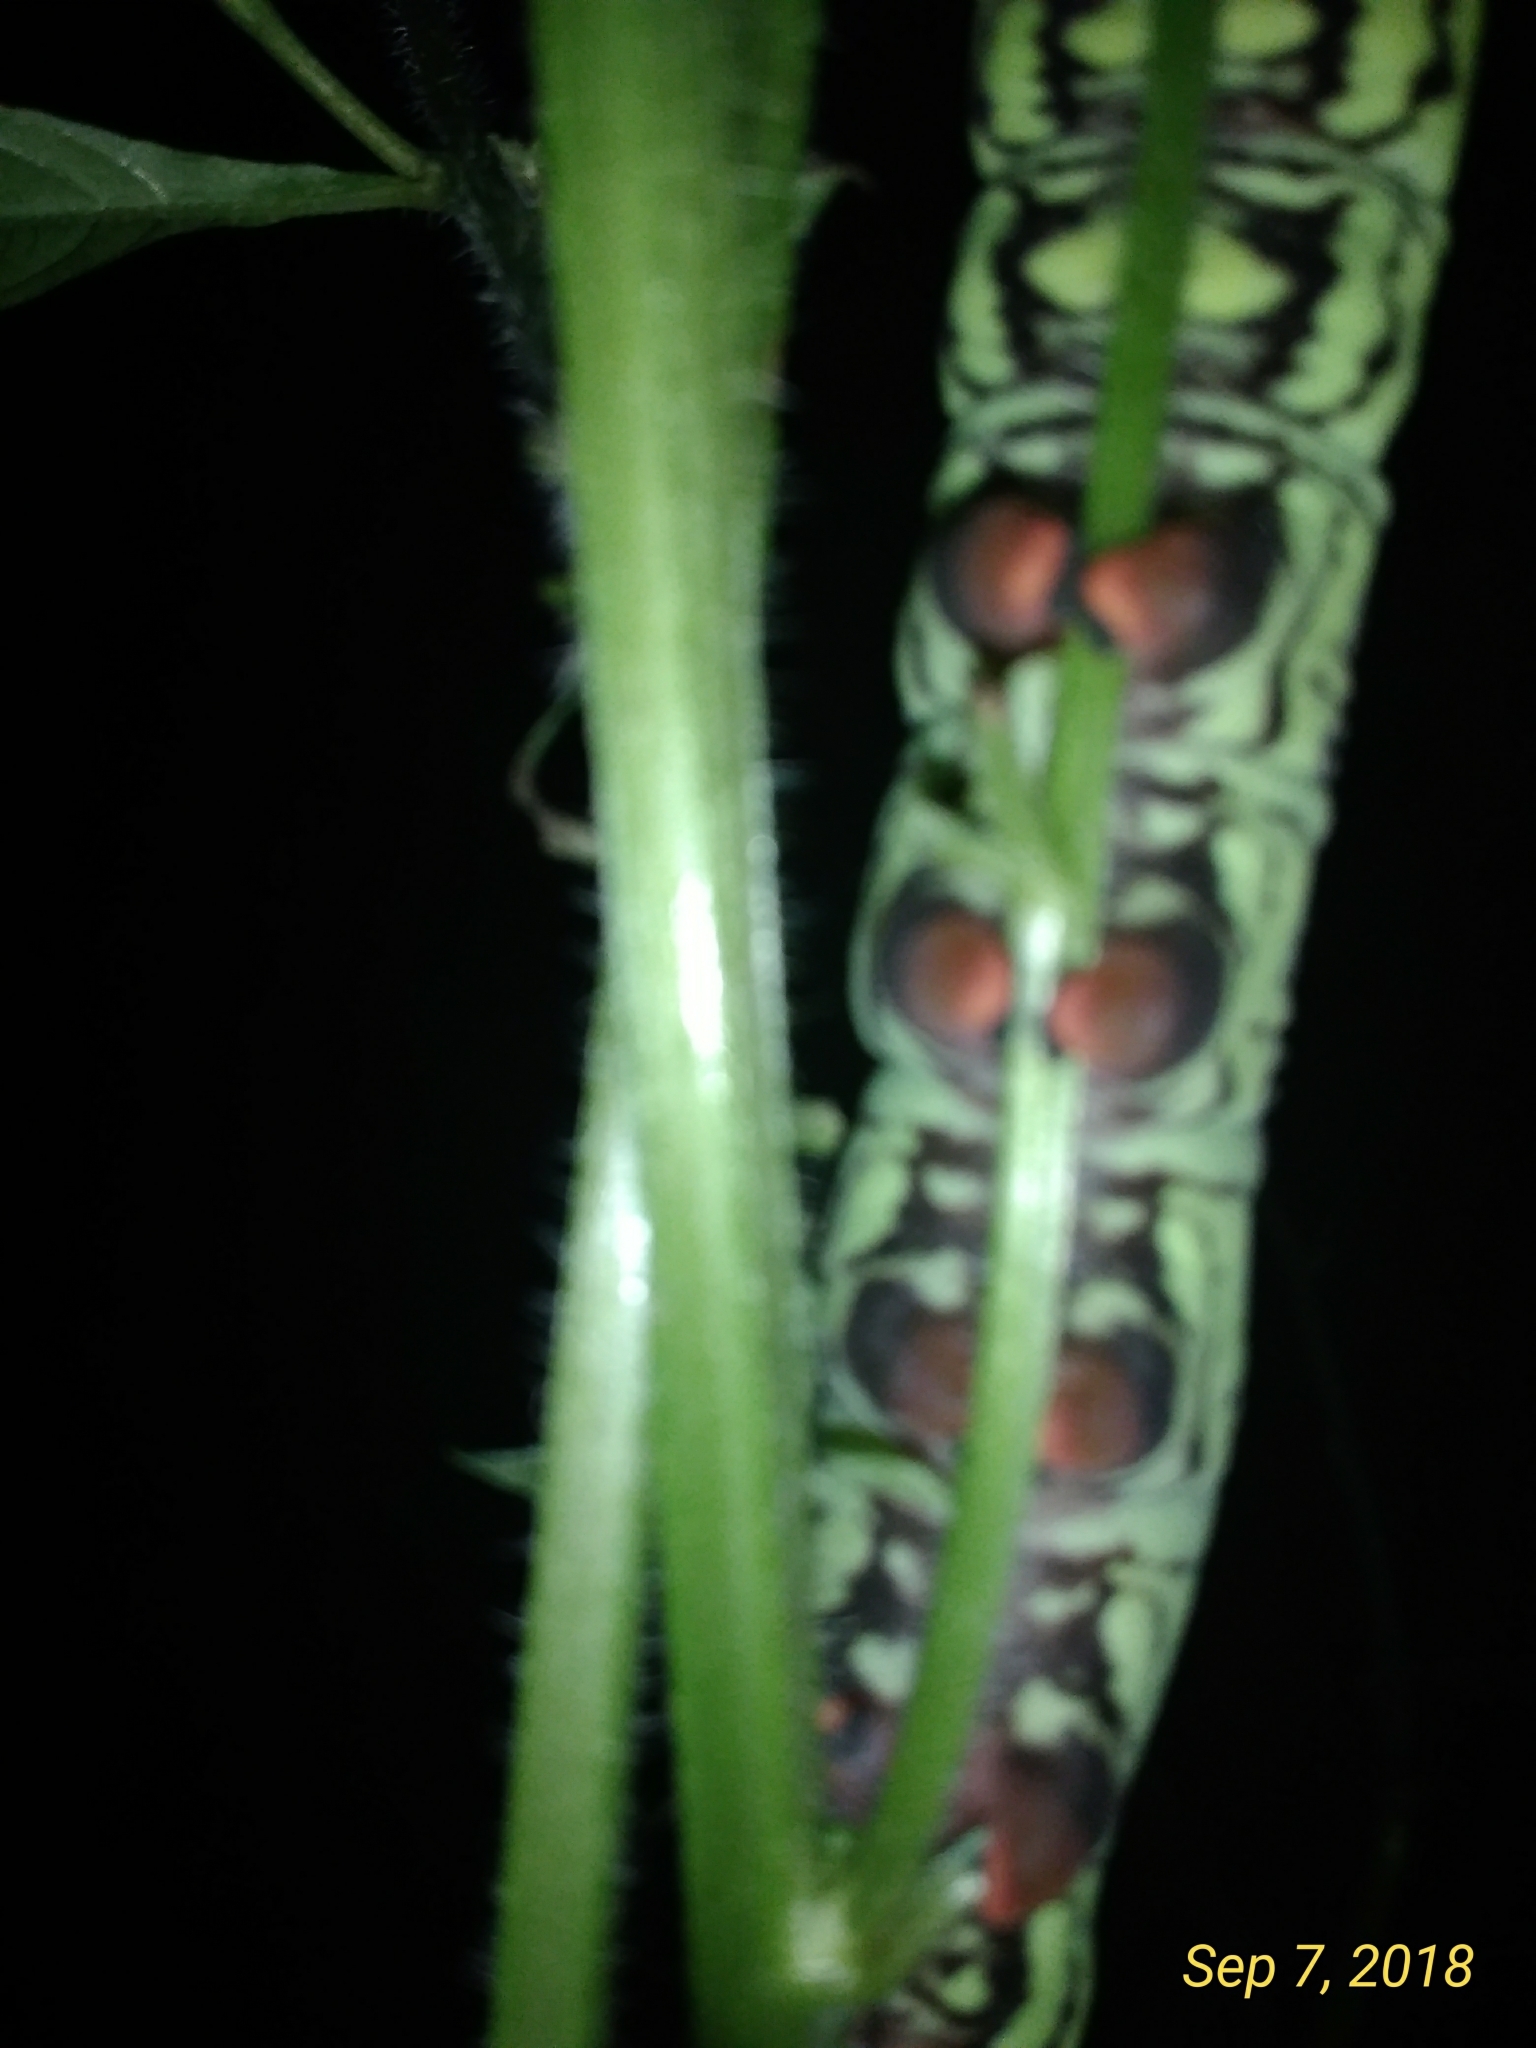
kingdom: Animalia
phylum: Arthropoda
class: Insecta
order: Lepidoptera
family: Sphingidae
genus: Eumorpha
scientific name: Eumorpha fasciatus
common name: Banded sphinx
